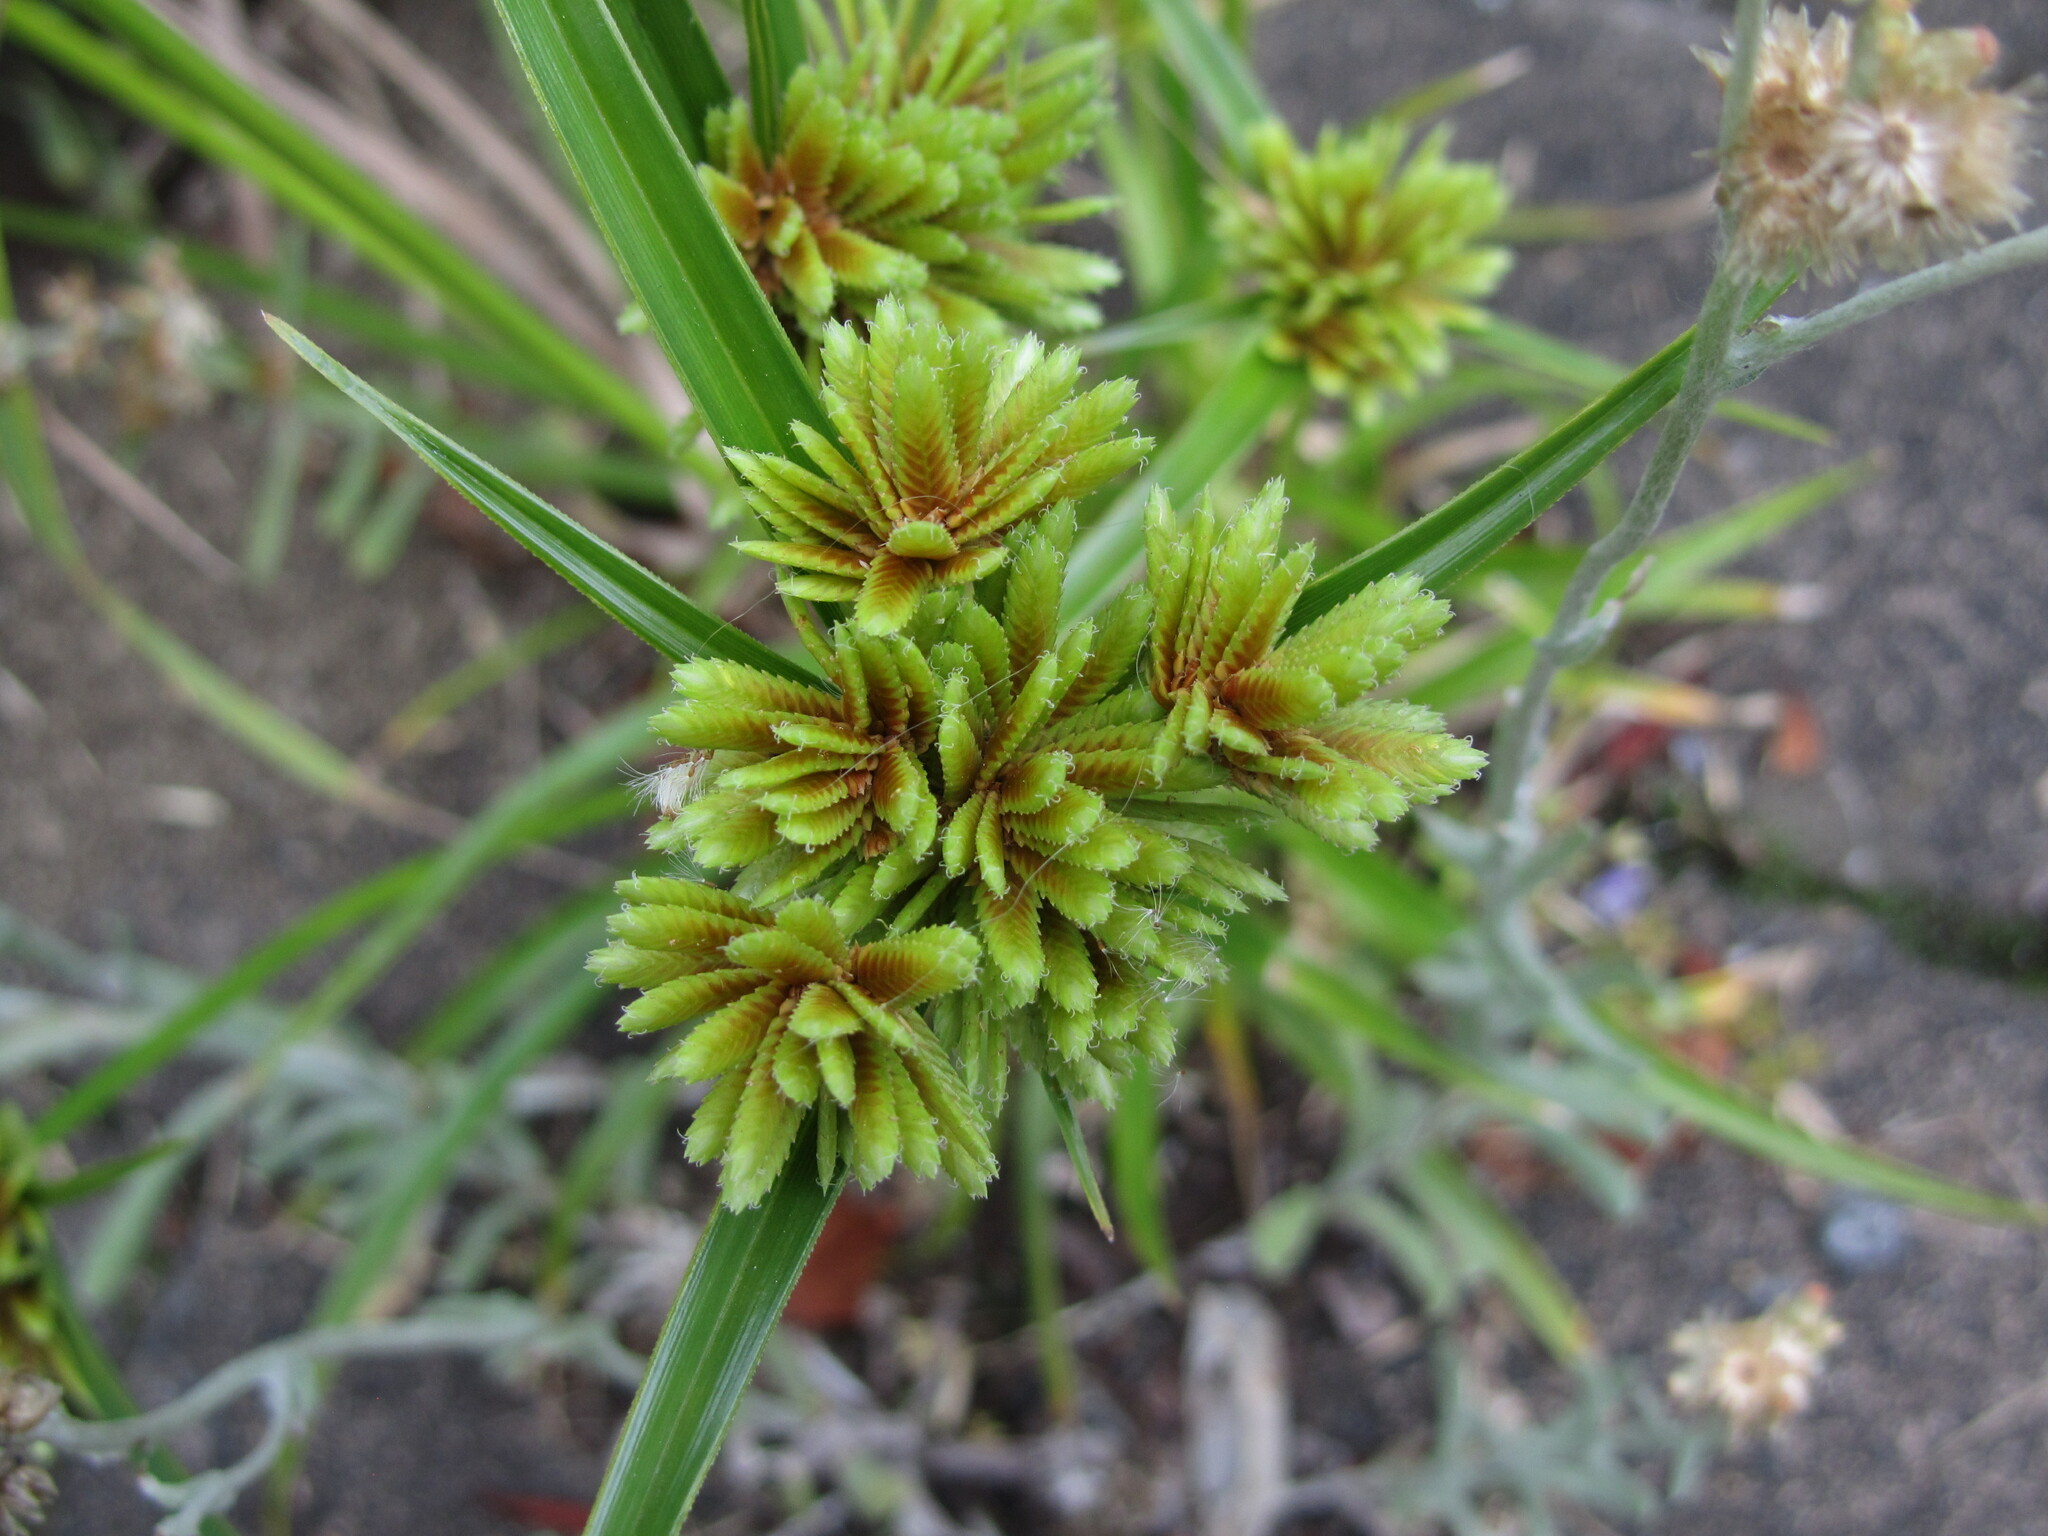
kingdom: Plantae
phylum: Tracheophyta
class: Liliopsida
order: Poales
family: Cyperaceae
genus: Cyperus
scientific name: Cyperus eragrostis
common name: Tall flatsedge
